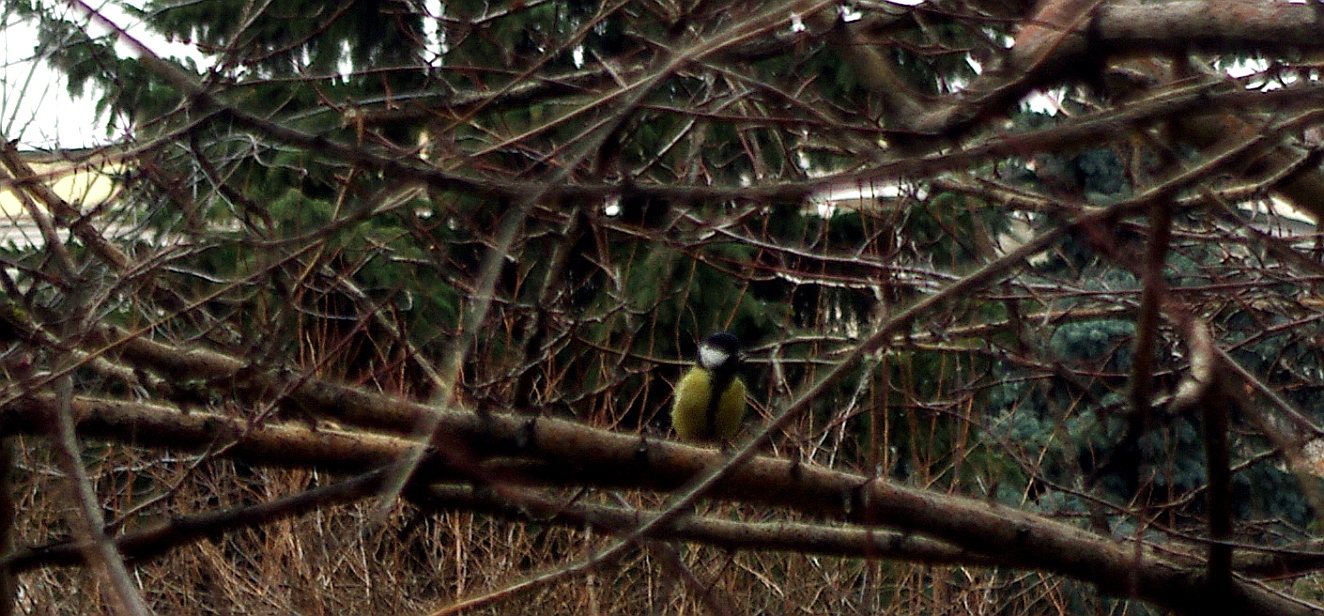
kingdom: Animalia
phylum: Chordata
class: Aves
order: Passeriformes
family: Paridae
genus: Parus
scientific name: Parus major
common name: Great tit
